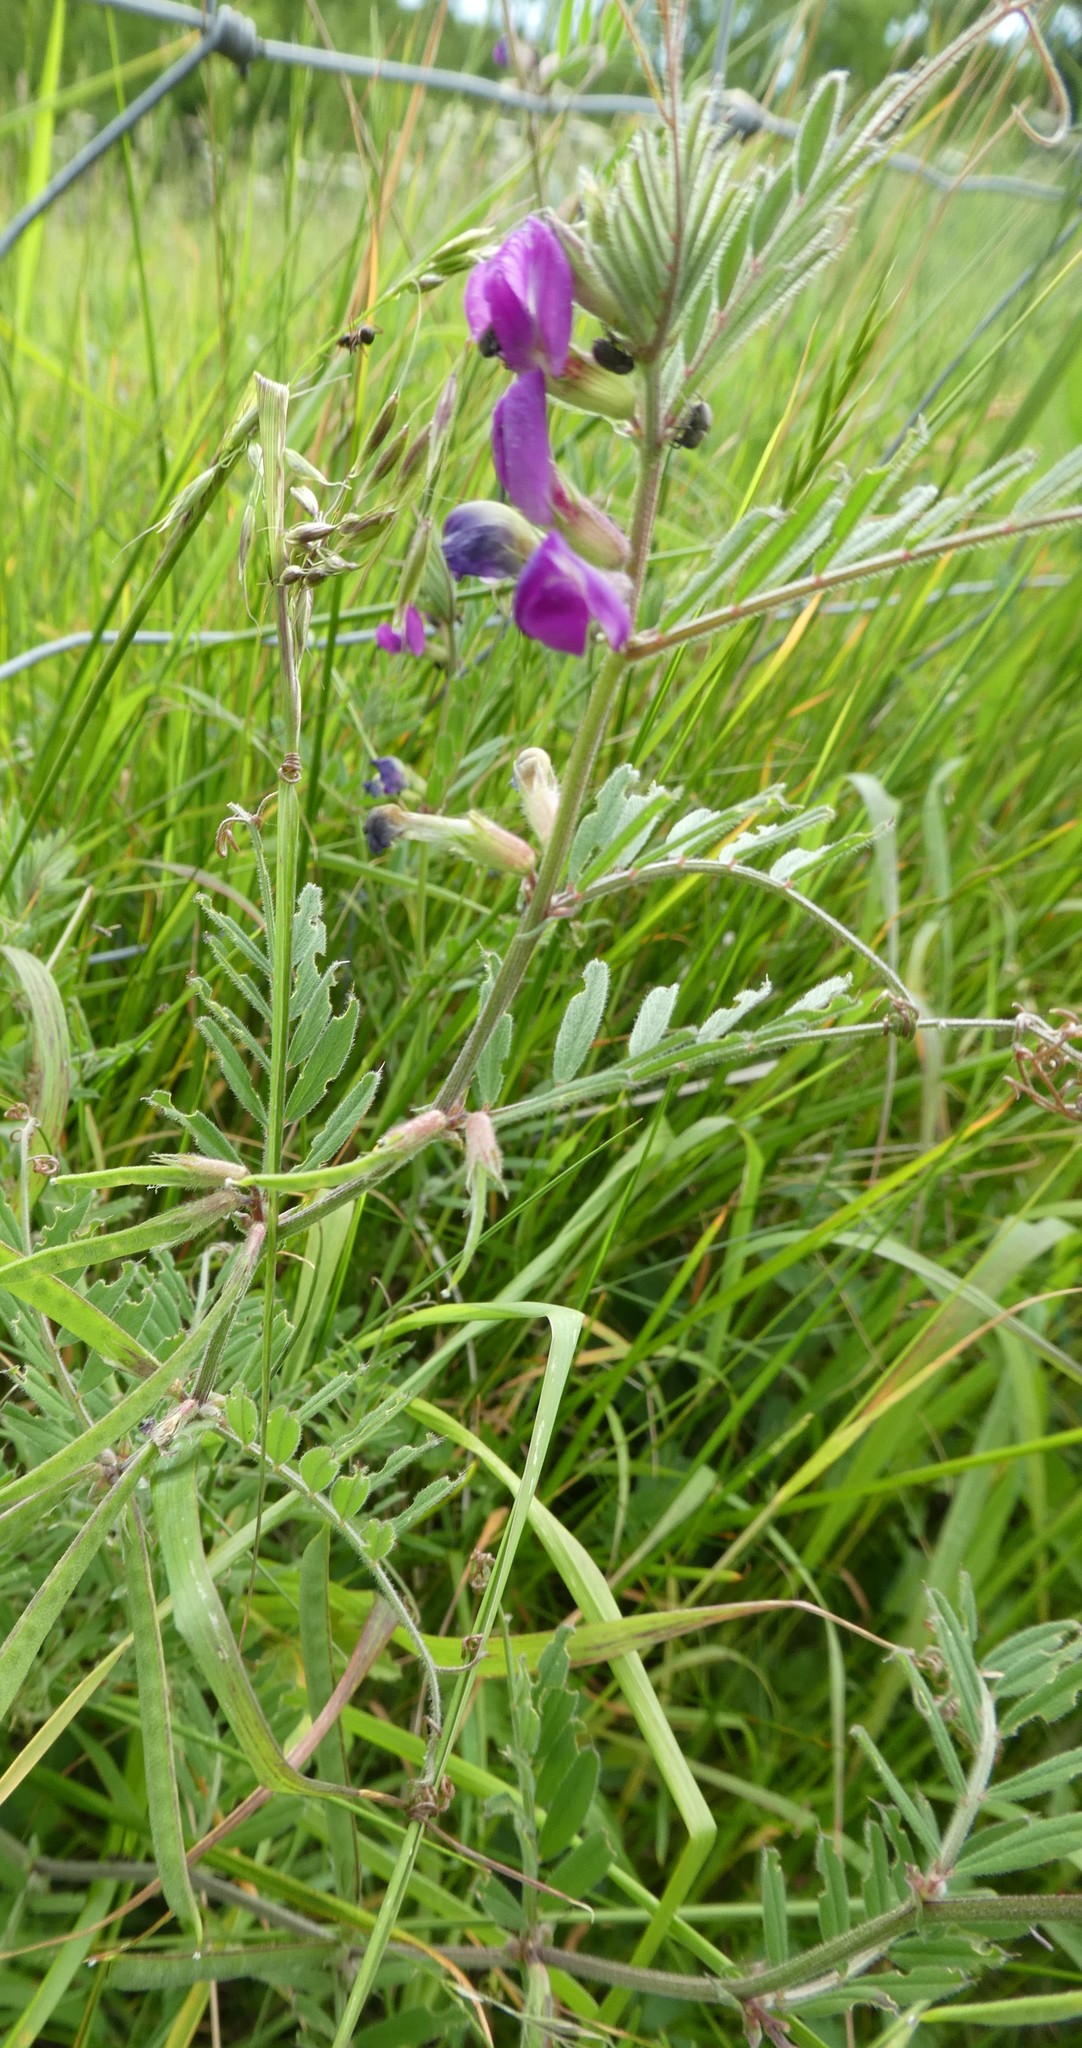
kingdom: Plantae
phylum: Tracheophyta
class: Magnoliopsida
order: Fabales
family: Fabaceae
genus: Vicia
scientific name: Vicia sativa
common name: Garden vetch
